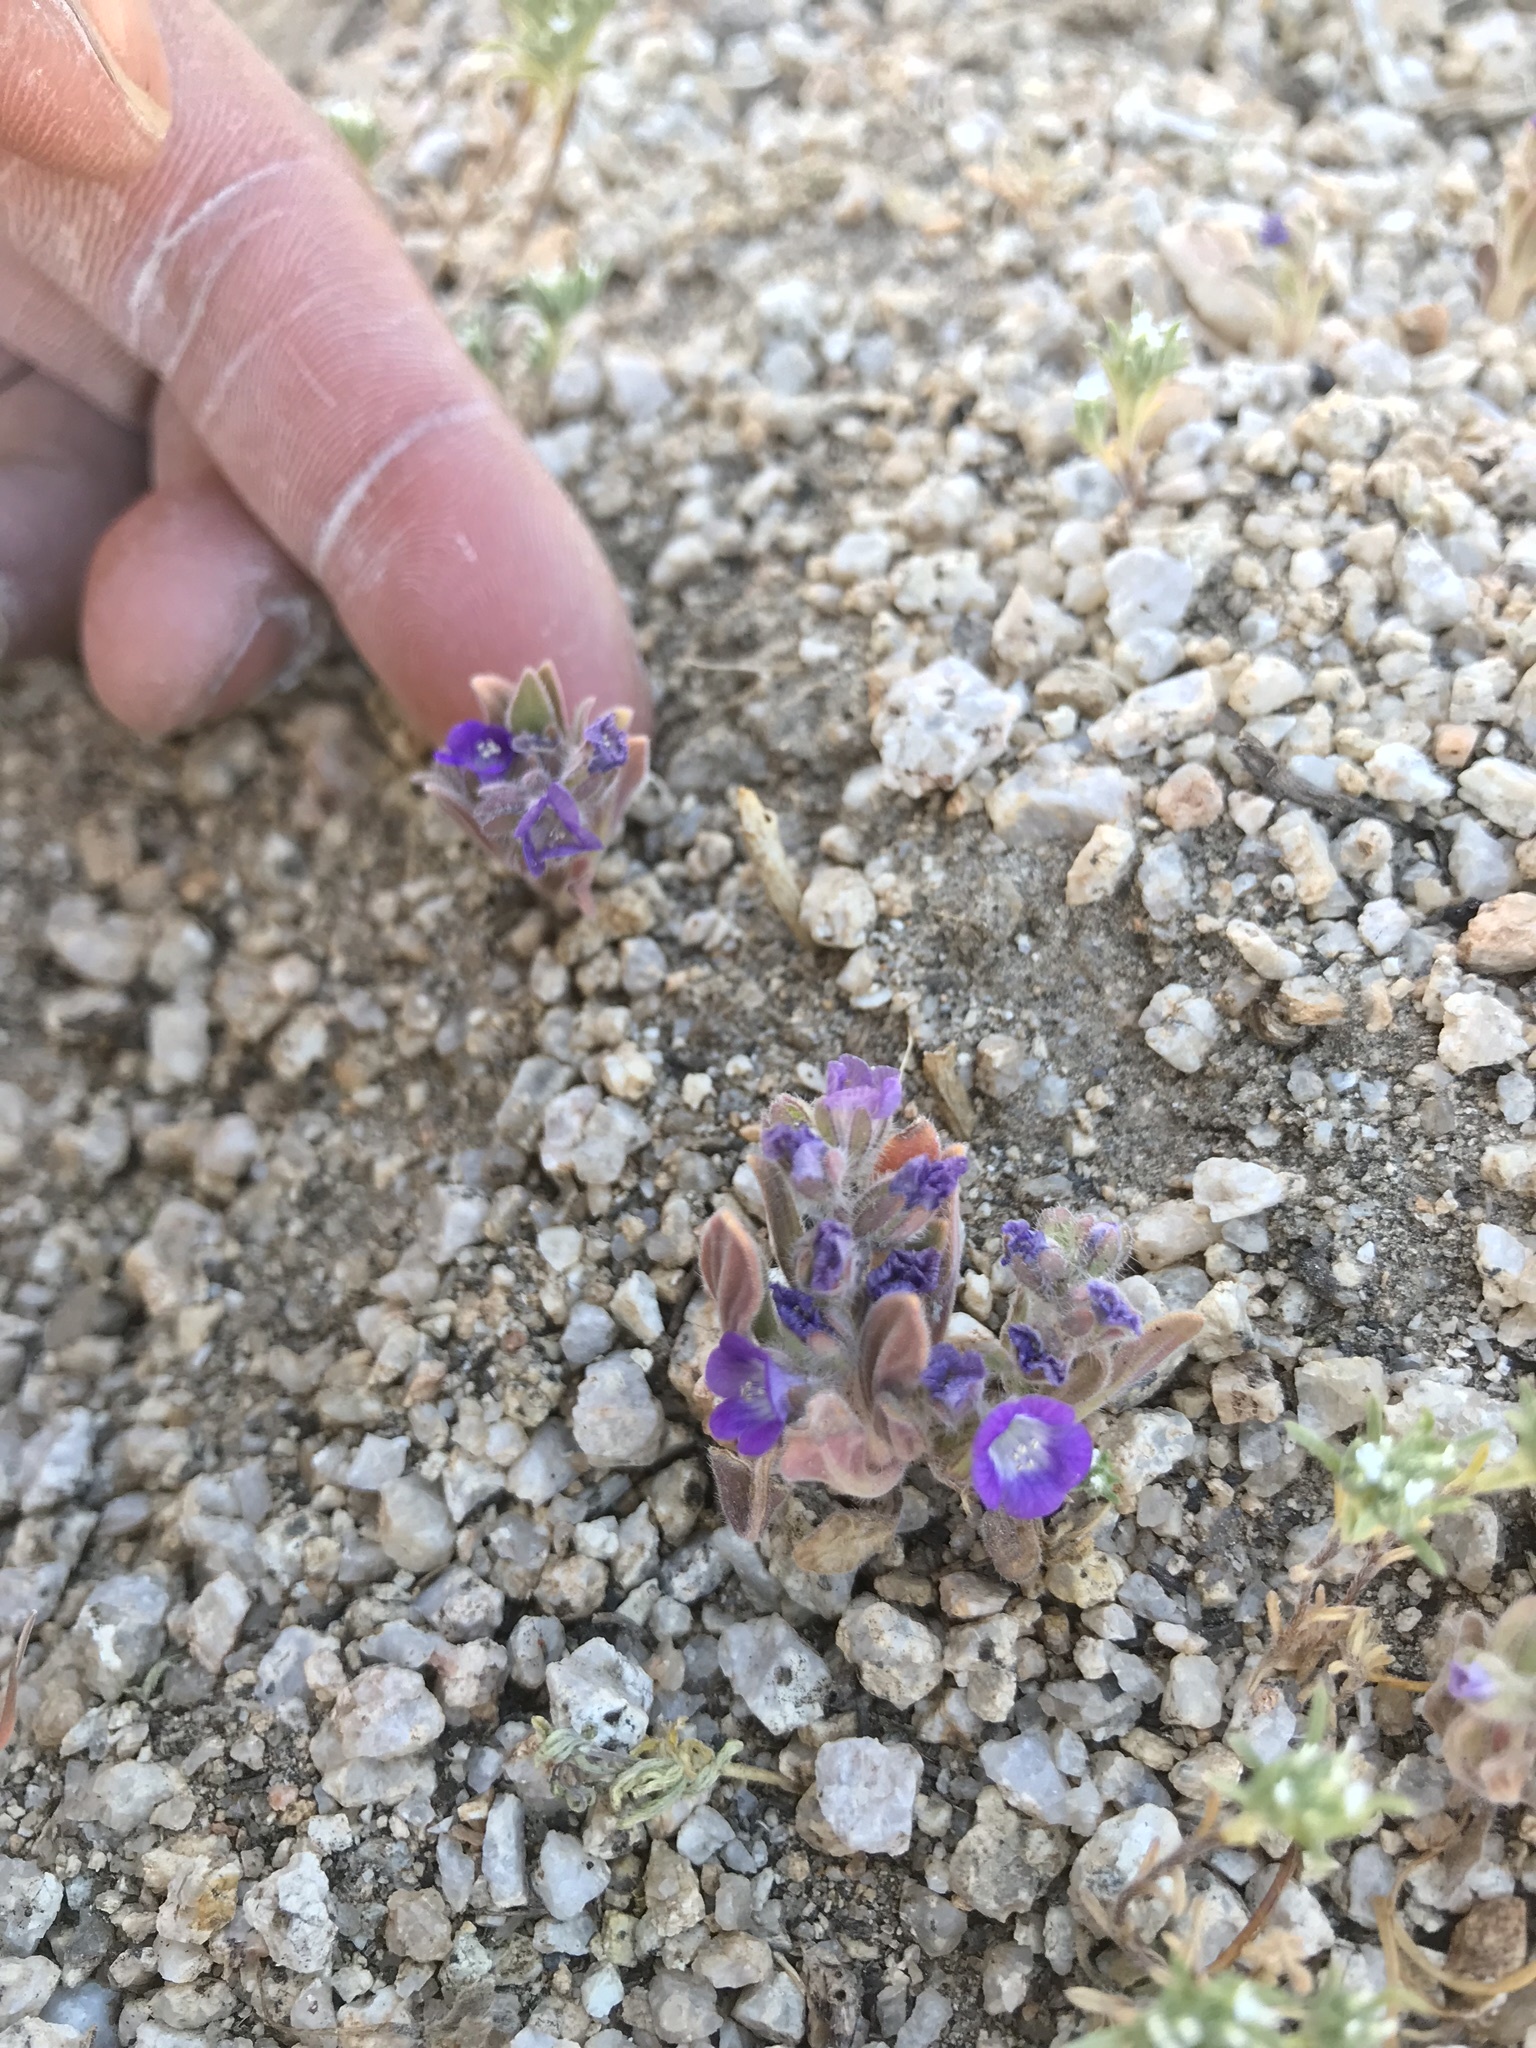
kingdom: Plantae
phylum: Tracheophyta
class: Magnoliopsida
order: Boraginales
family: Hydrophyllaceae
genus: Phacelia
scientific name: Phacelia curvipes
